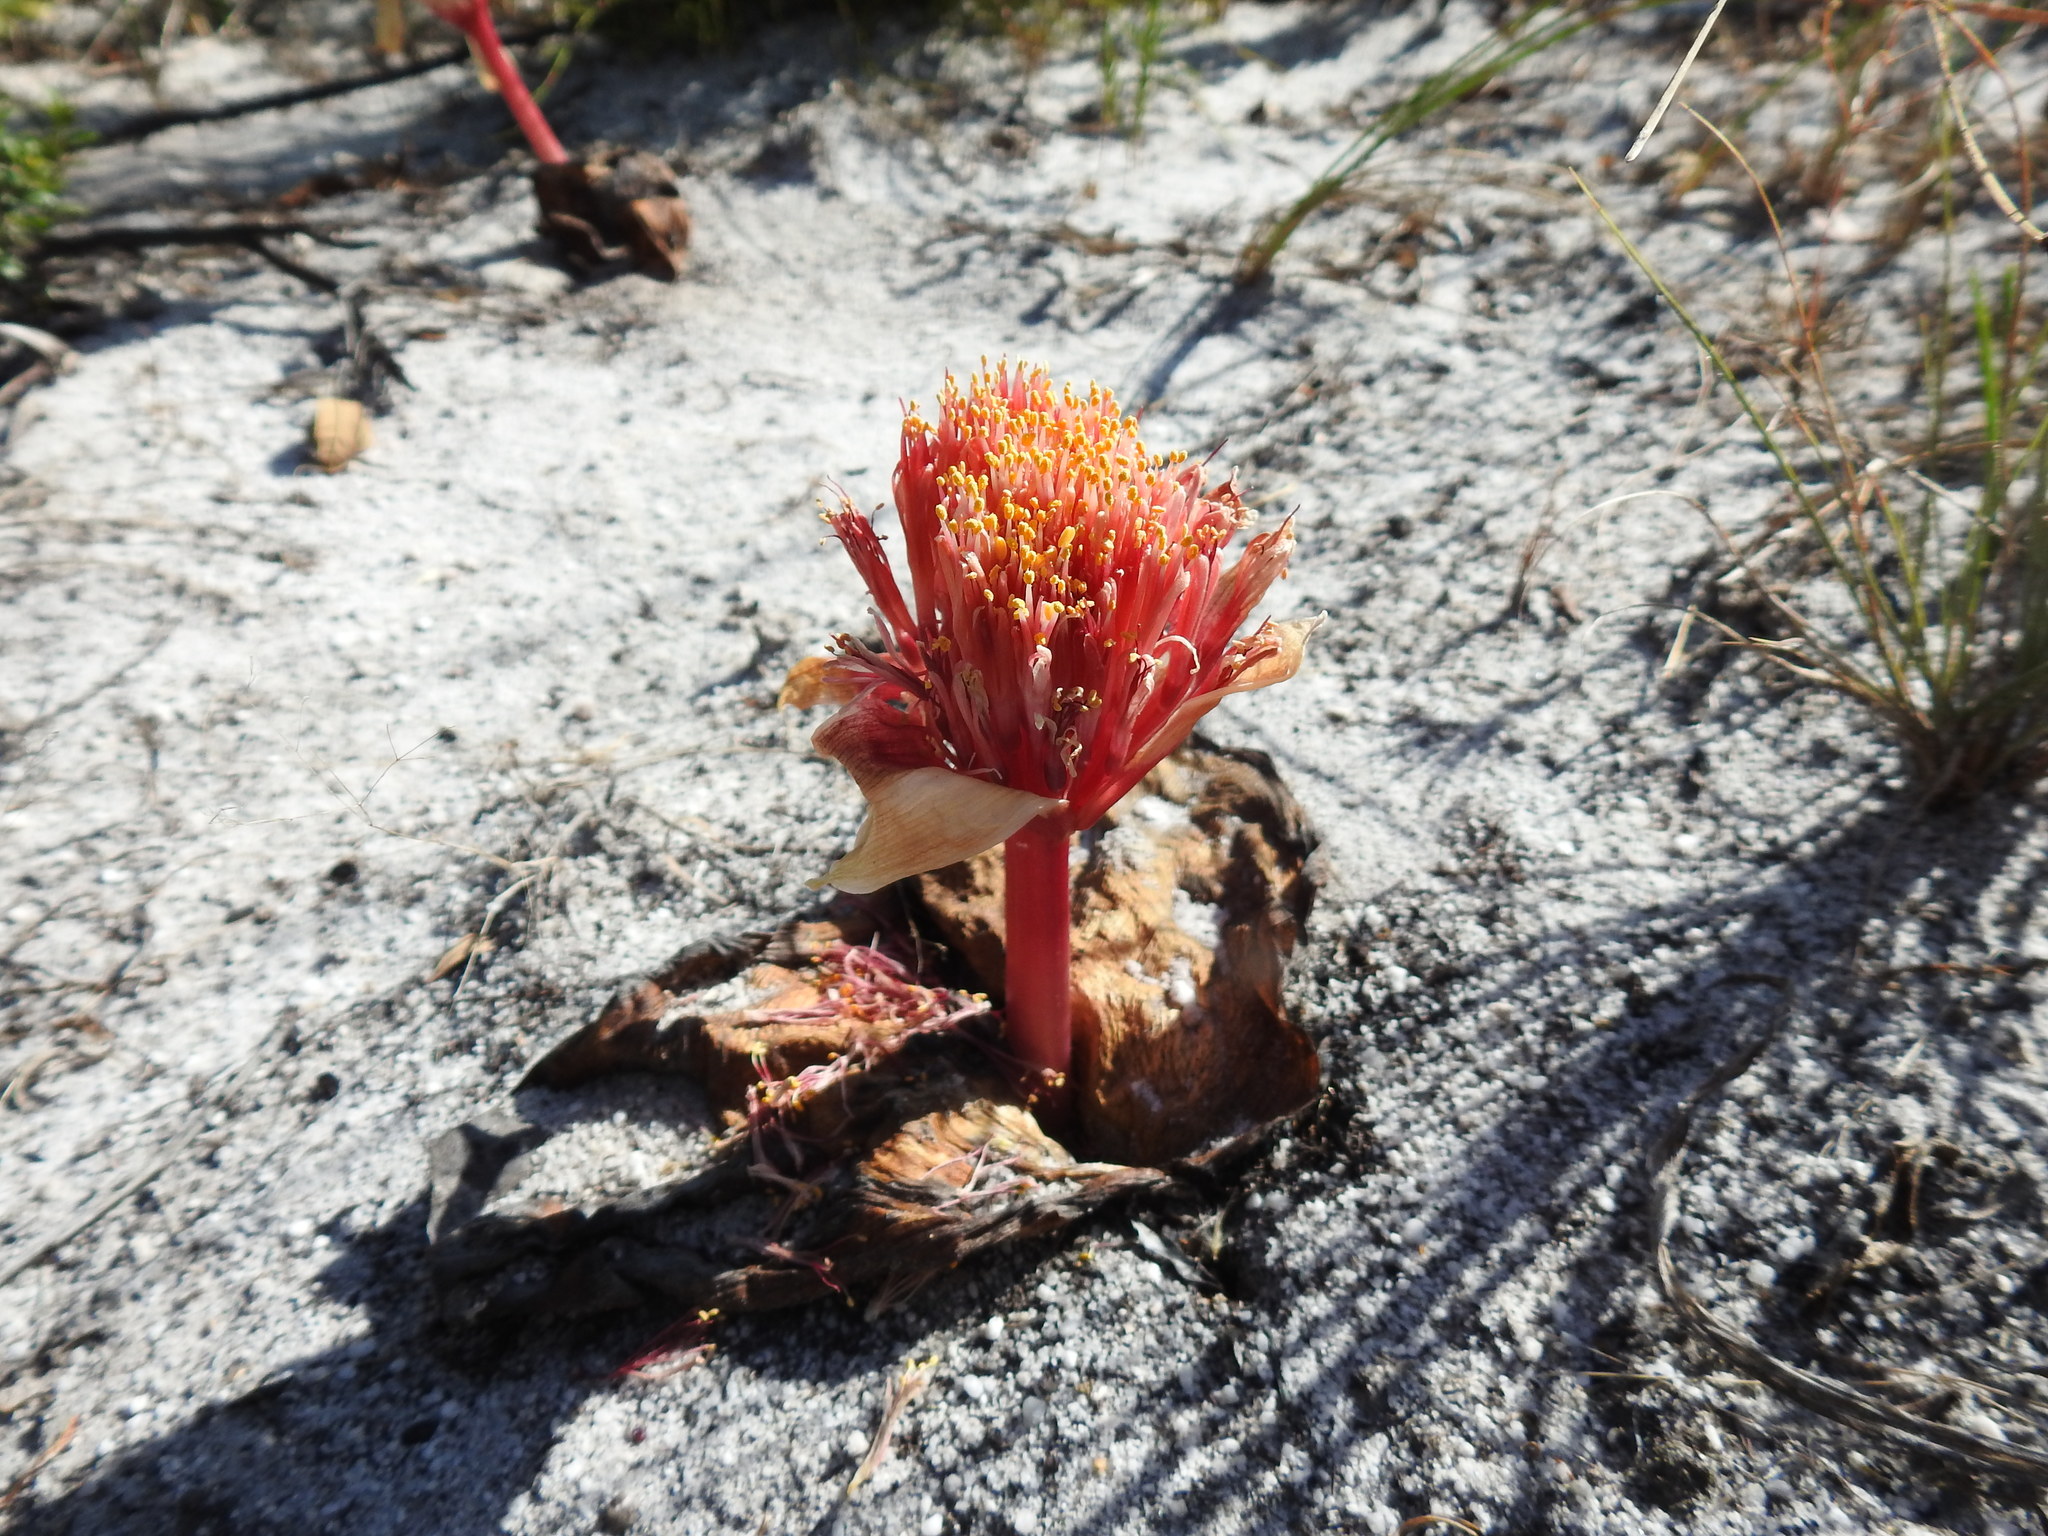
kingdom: Plantae
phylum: Tracheophyta
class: Liliopsida
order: Asparagales
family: Amaryllidaceae
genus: Haemanthus
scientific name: Haemanthus sanguineus
